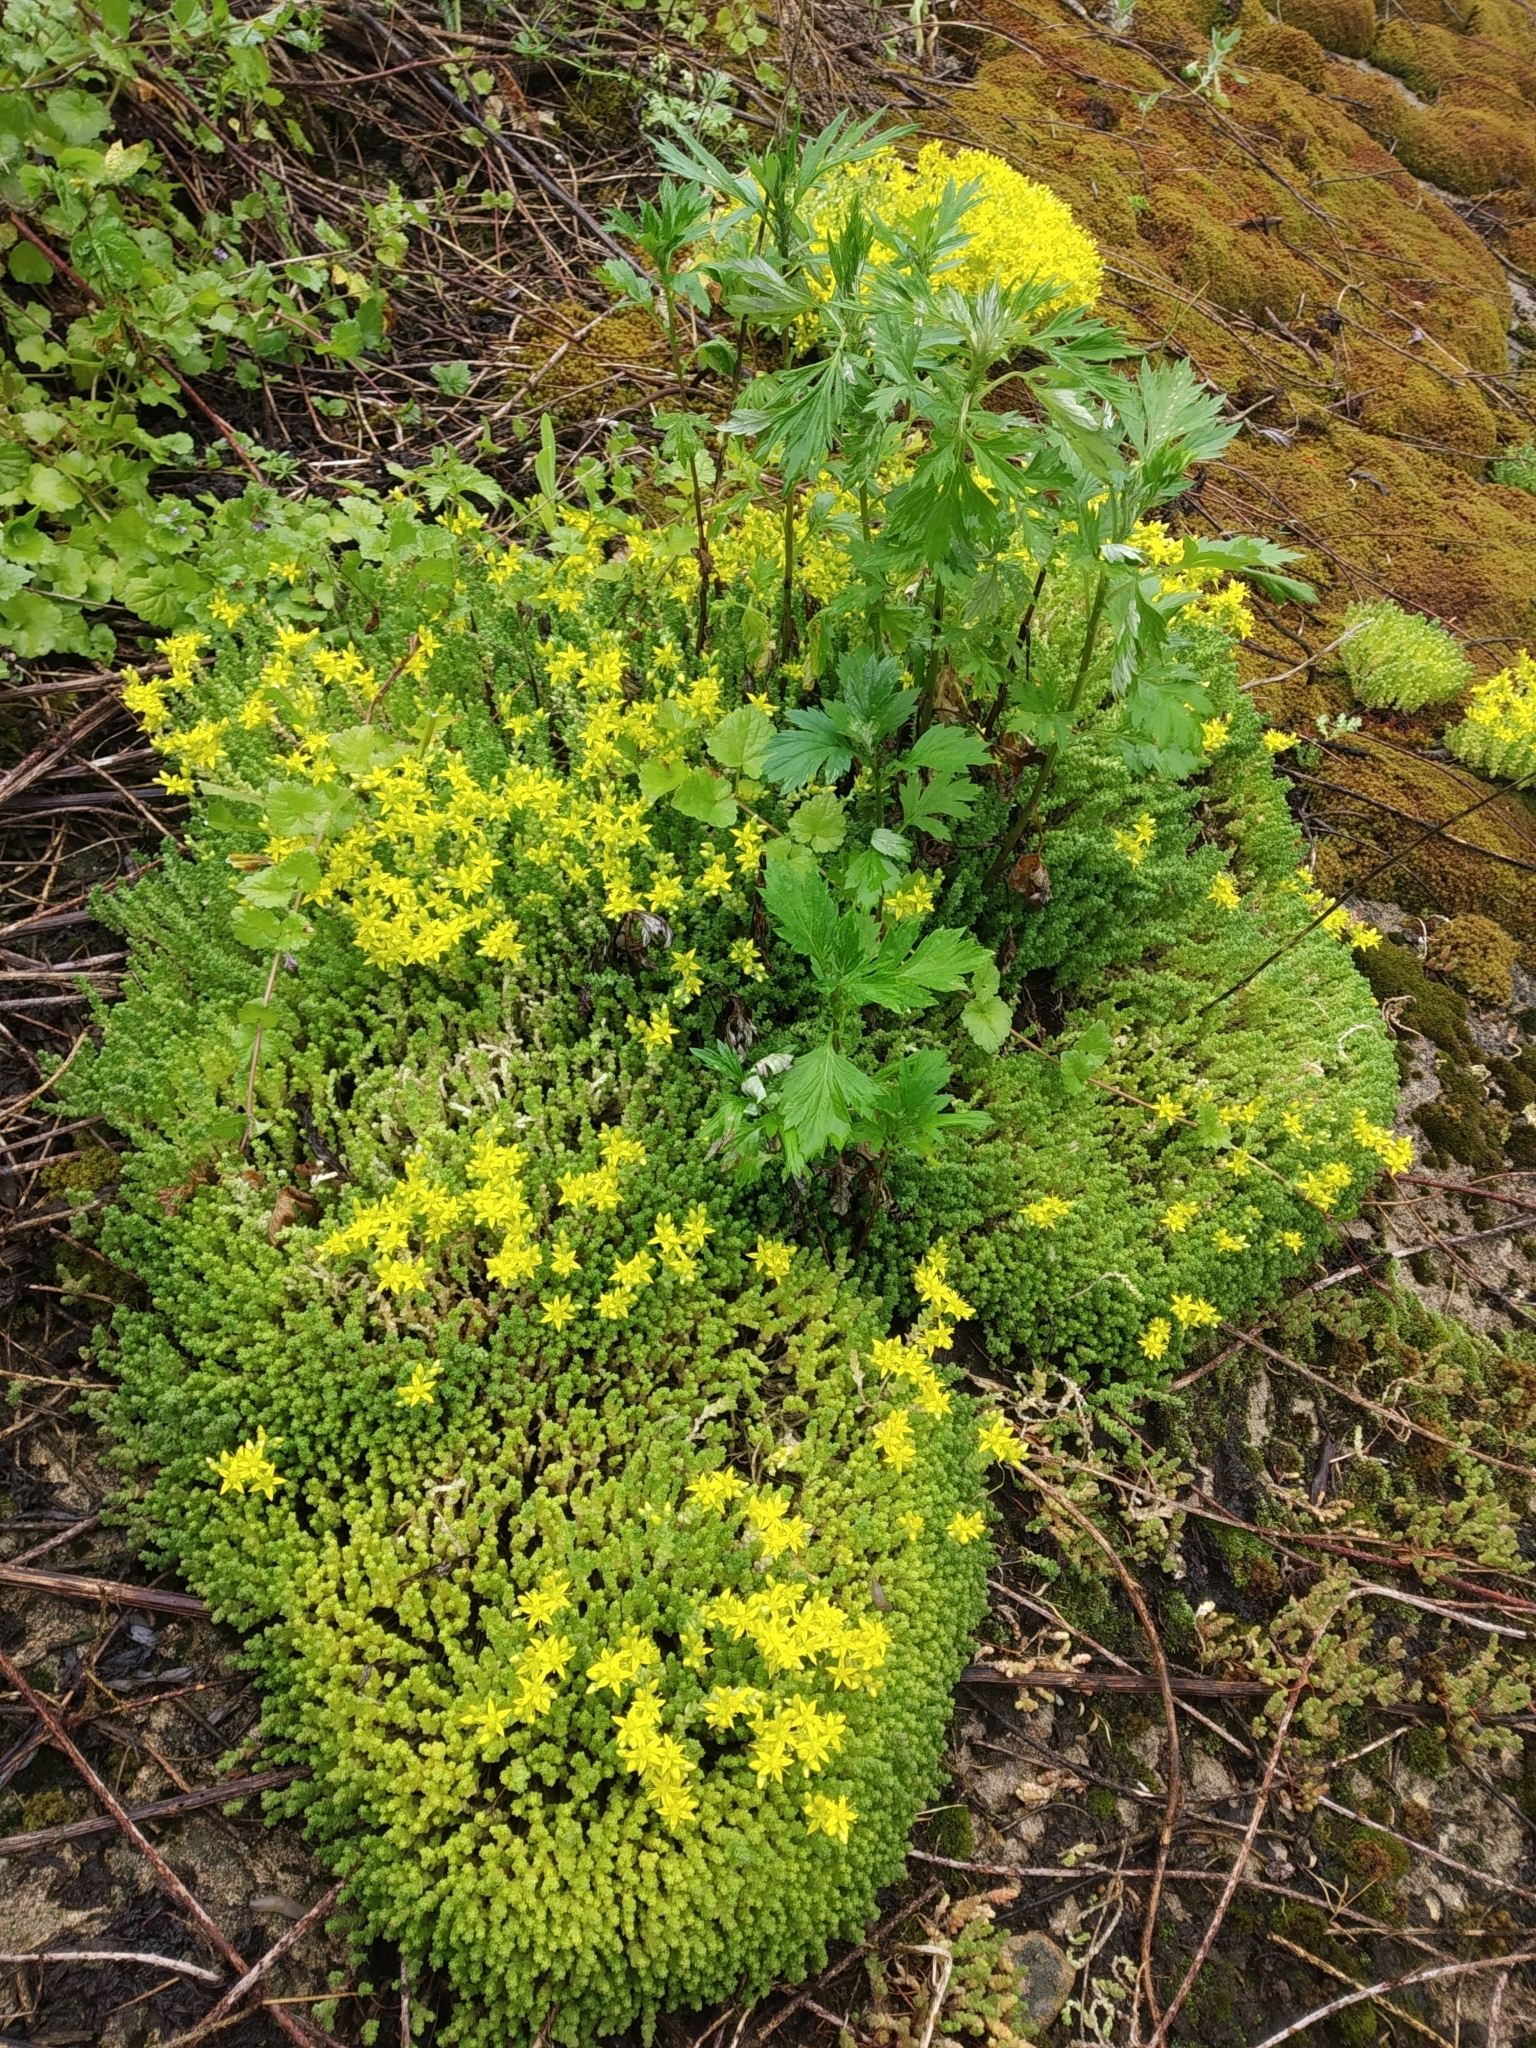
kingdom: Plantae
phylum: Tracheophyta
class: Magnoliopsida
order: Saxifragales
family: Crassulaceae
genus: Sedum
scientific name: Sedum acre
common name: Biting stonecrop
